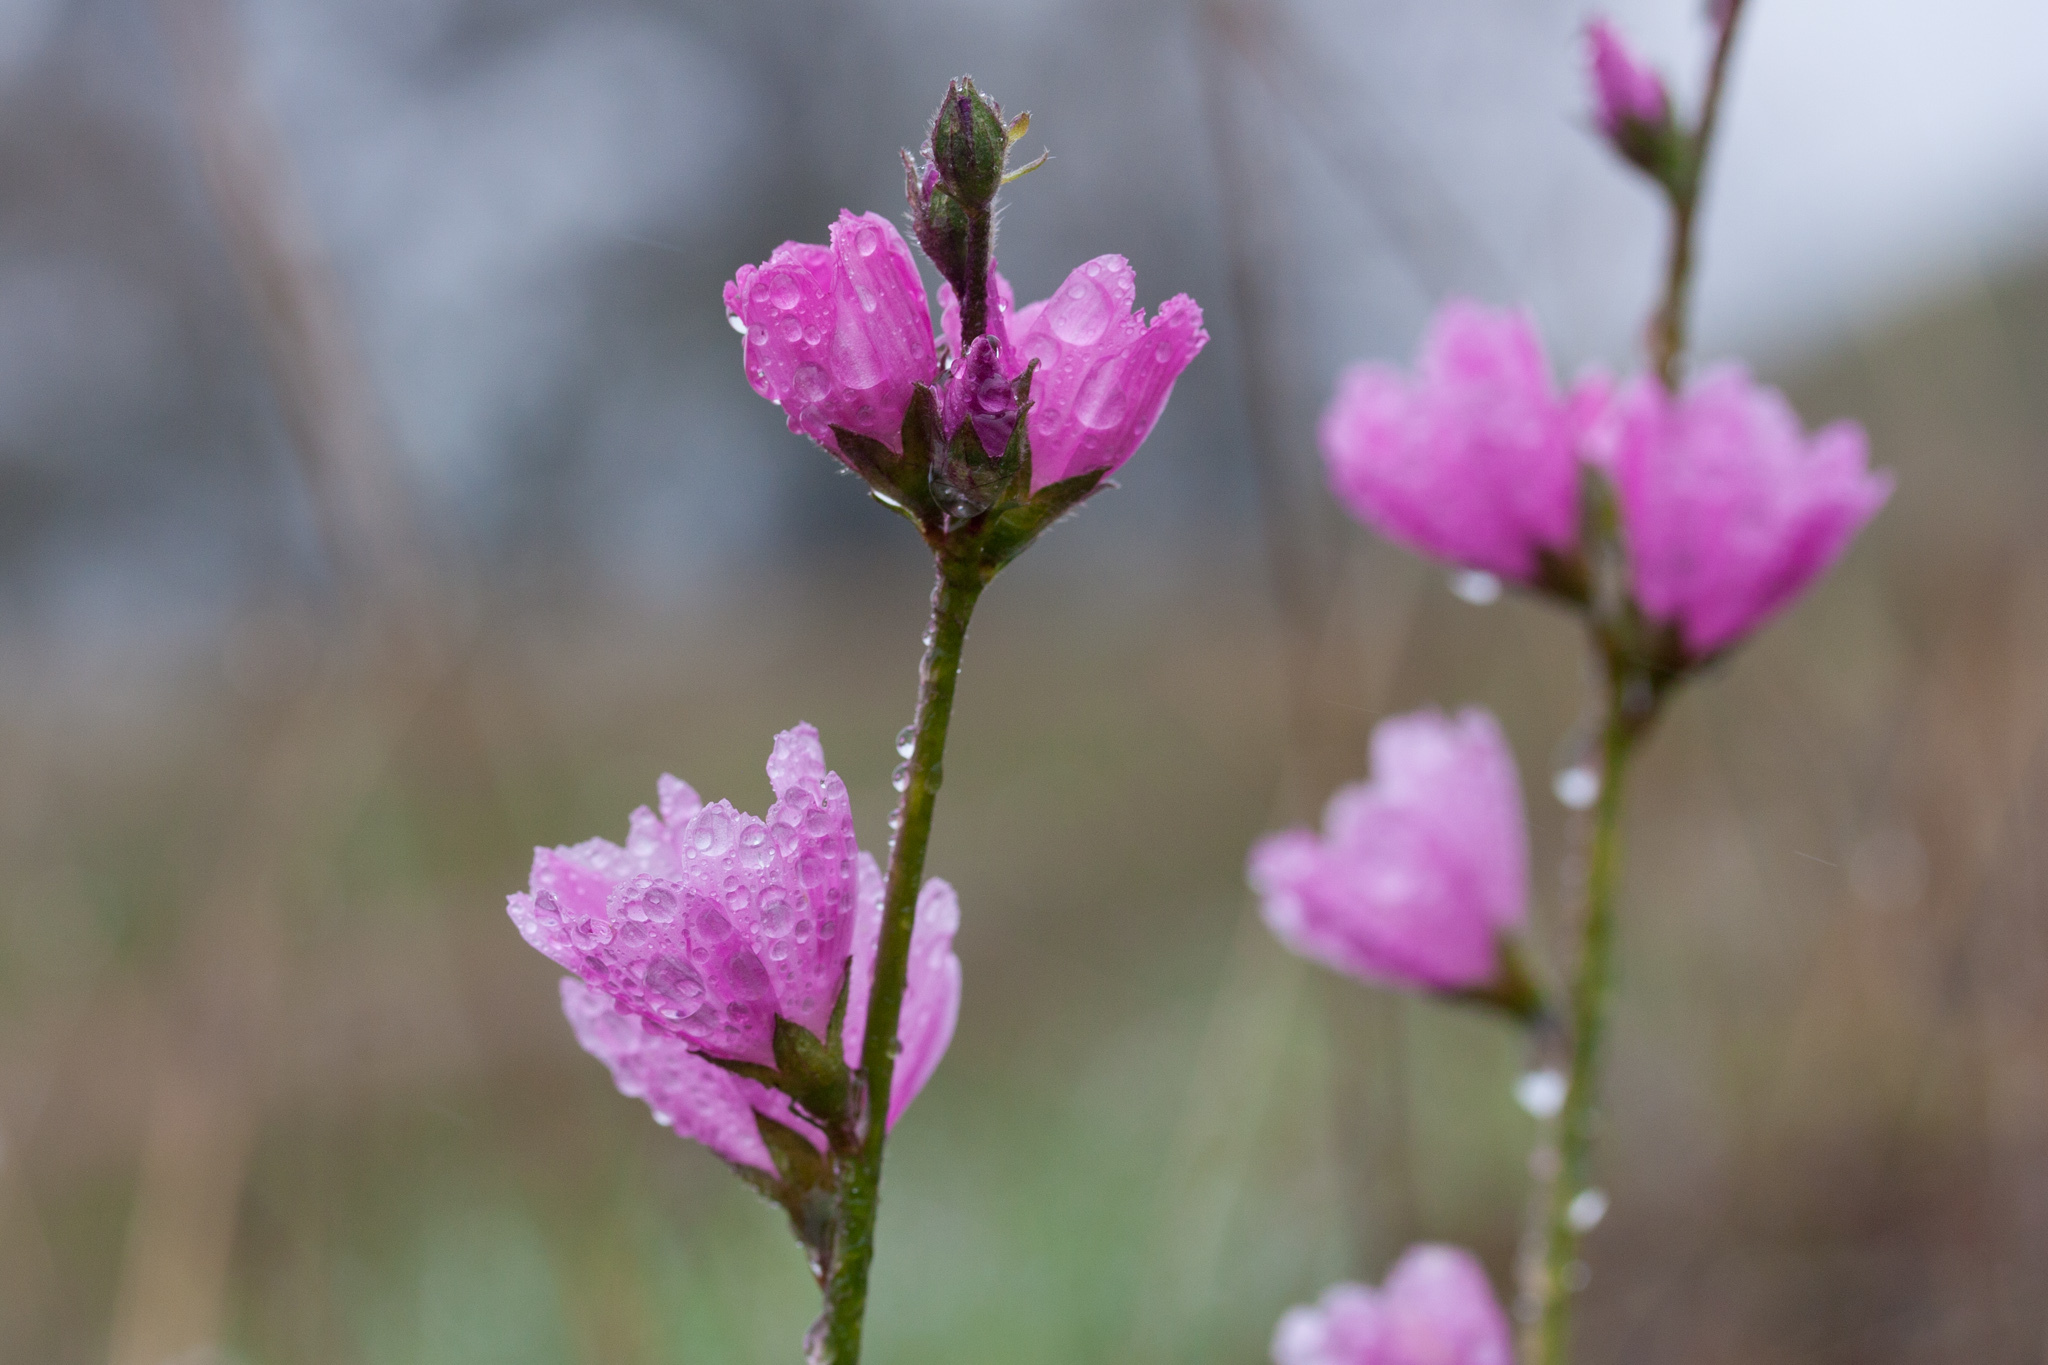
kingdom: Plantae
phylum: Tracheophyta
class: Magnoliopsida
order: Malvales
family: Malvaceae
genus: Sidalcea
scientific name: Sidalcea malviflora
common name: Greek mallow
